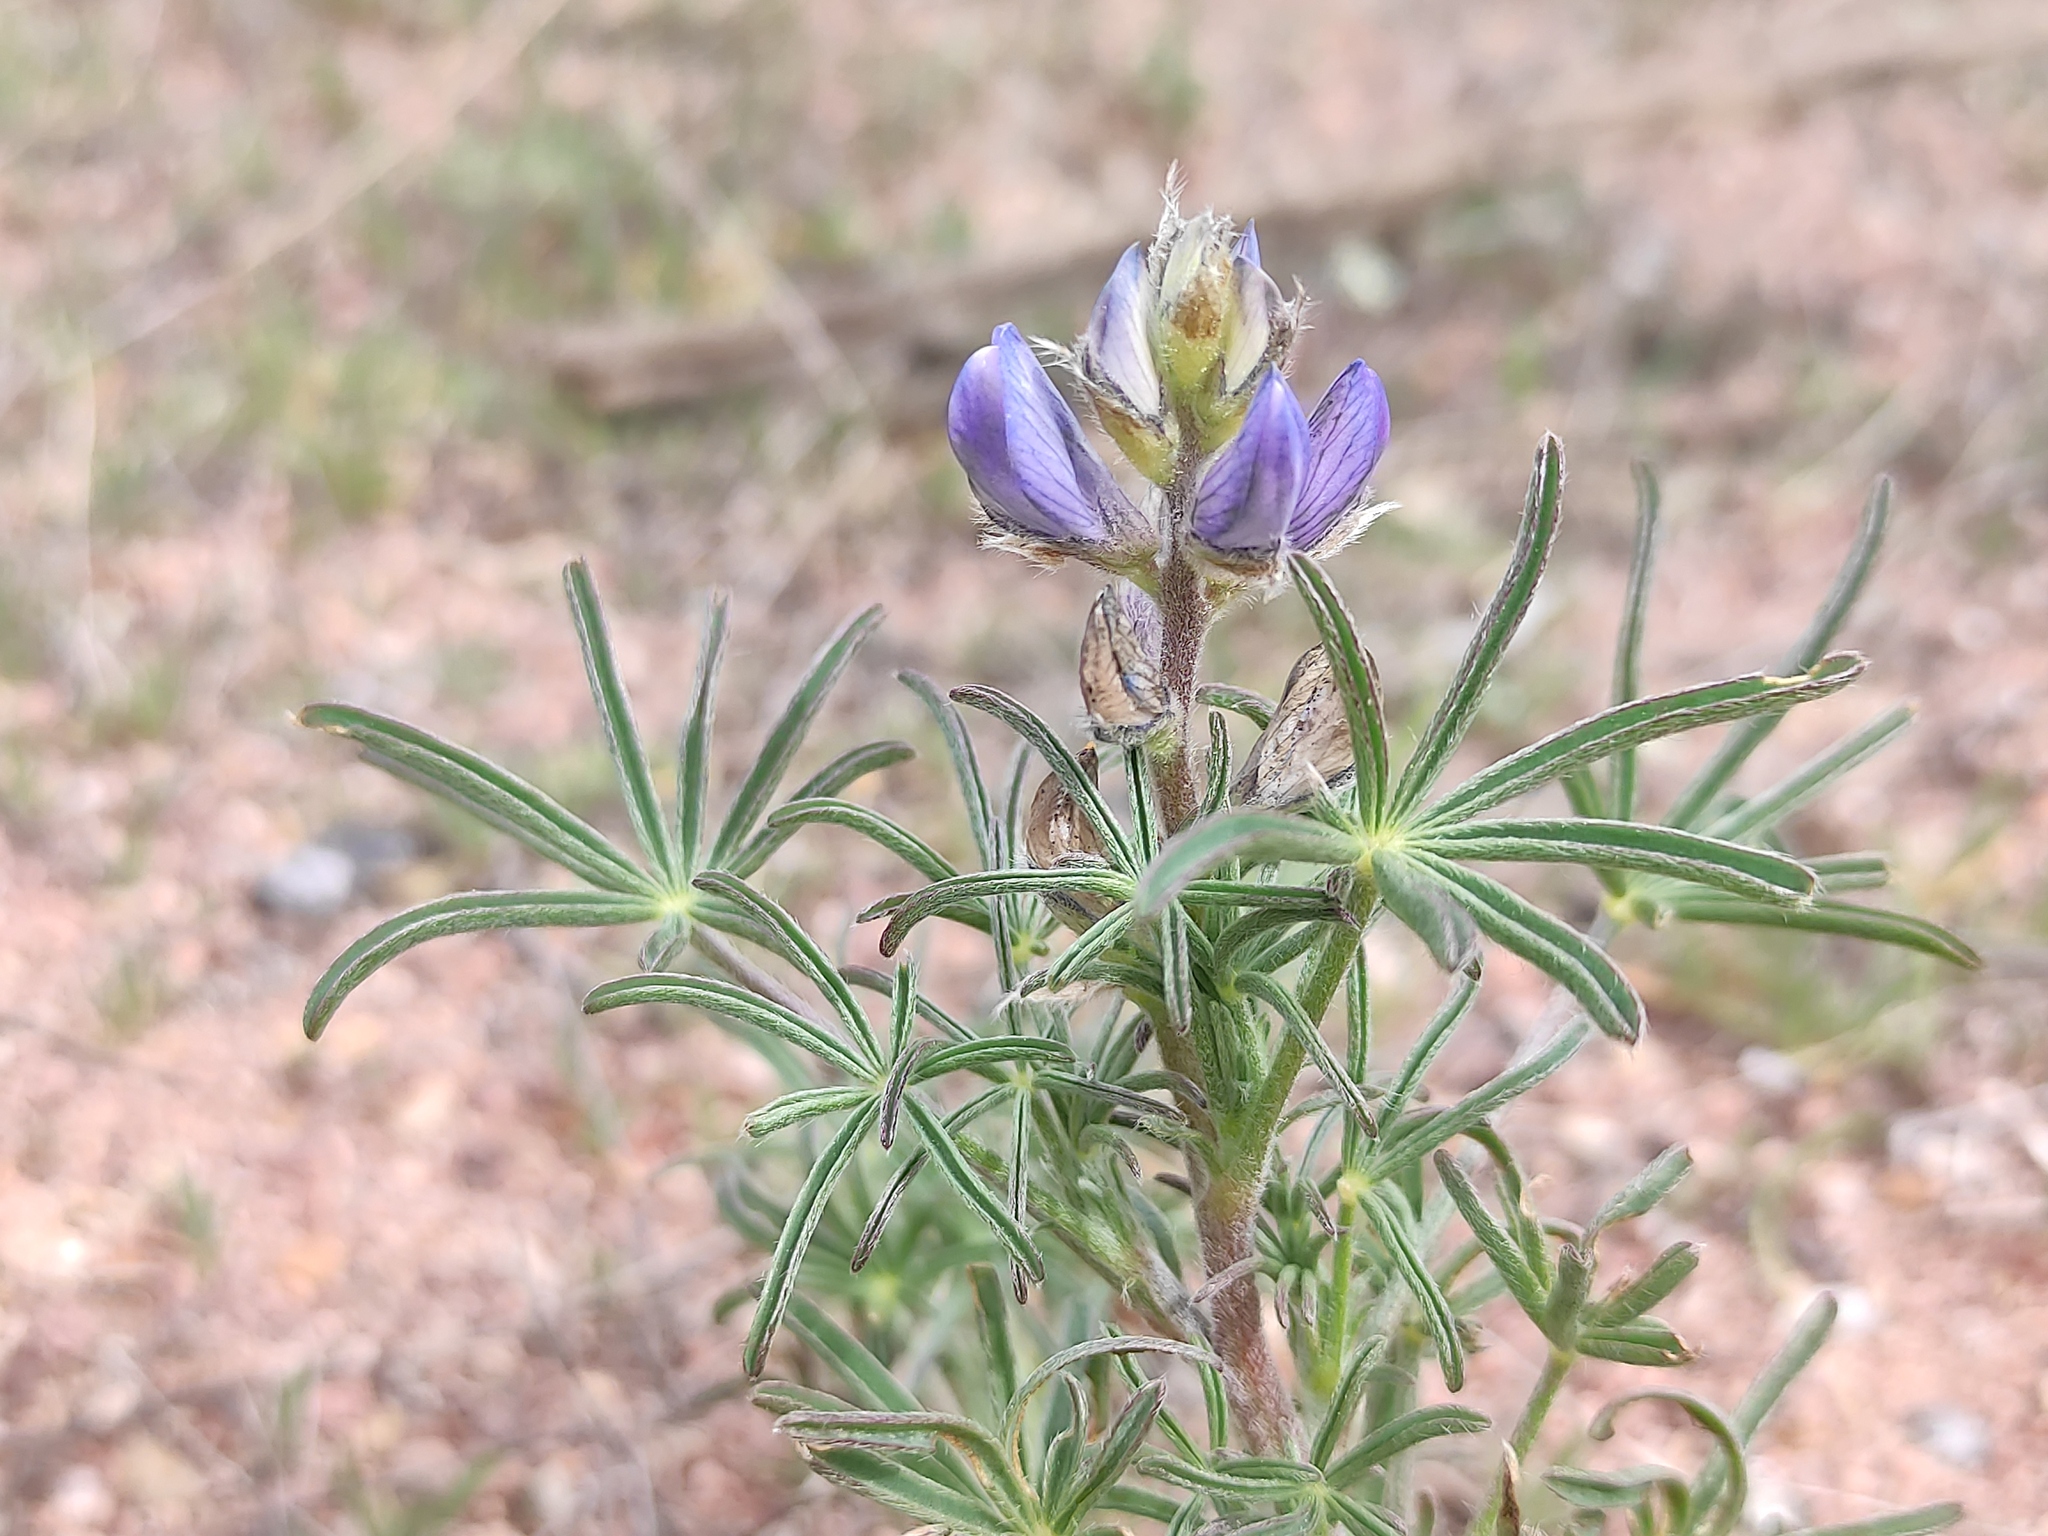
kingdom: Plantae
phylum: Tracheophyta
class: Magnoliopsida
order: Fabales
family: Fabaceae
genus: Lupinus
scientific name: Lupinus angustifolius
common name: Narrow-leaved lupin
